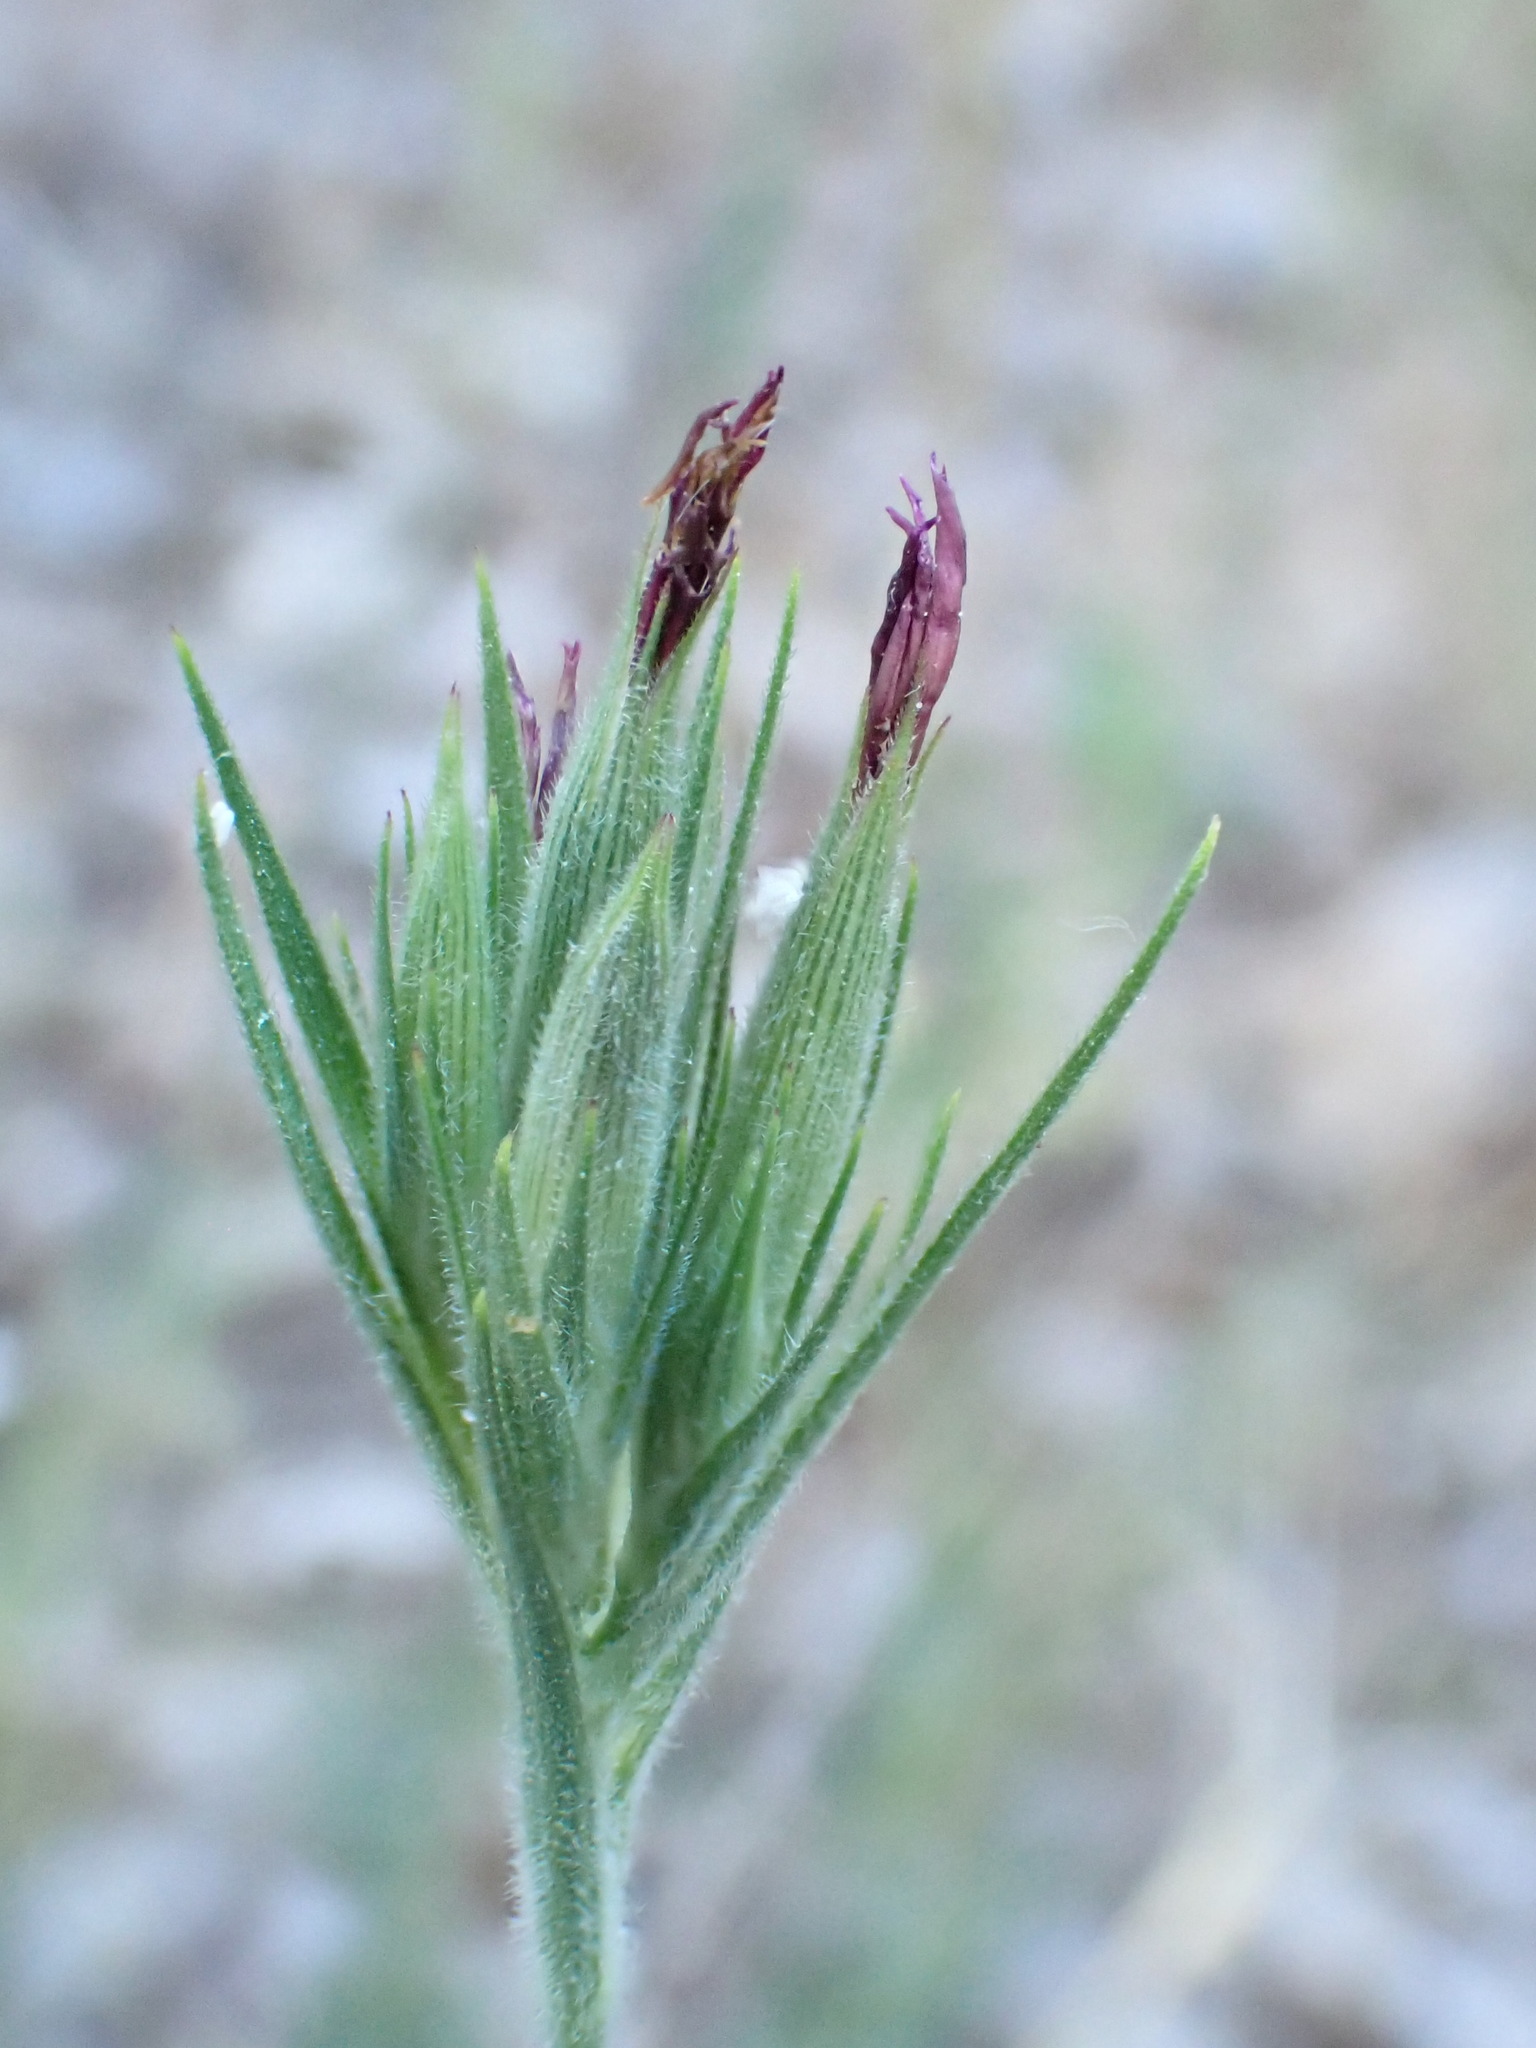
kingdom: Plantae
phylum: Tracheophyta
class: Magnoliopsida
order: Caryophyllales
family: Caryophyllaceae
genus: Dianthus
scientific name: Dianthus armeria
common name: Deptford pink
